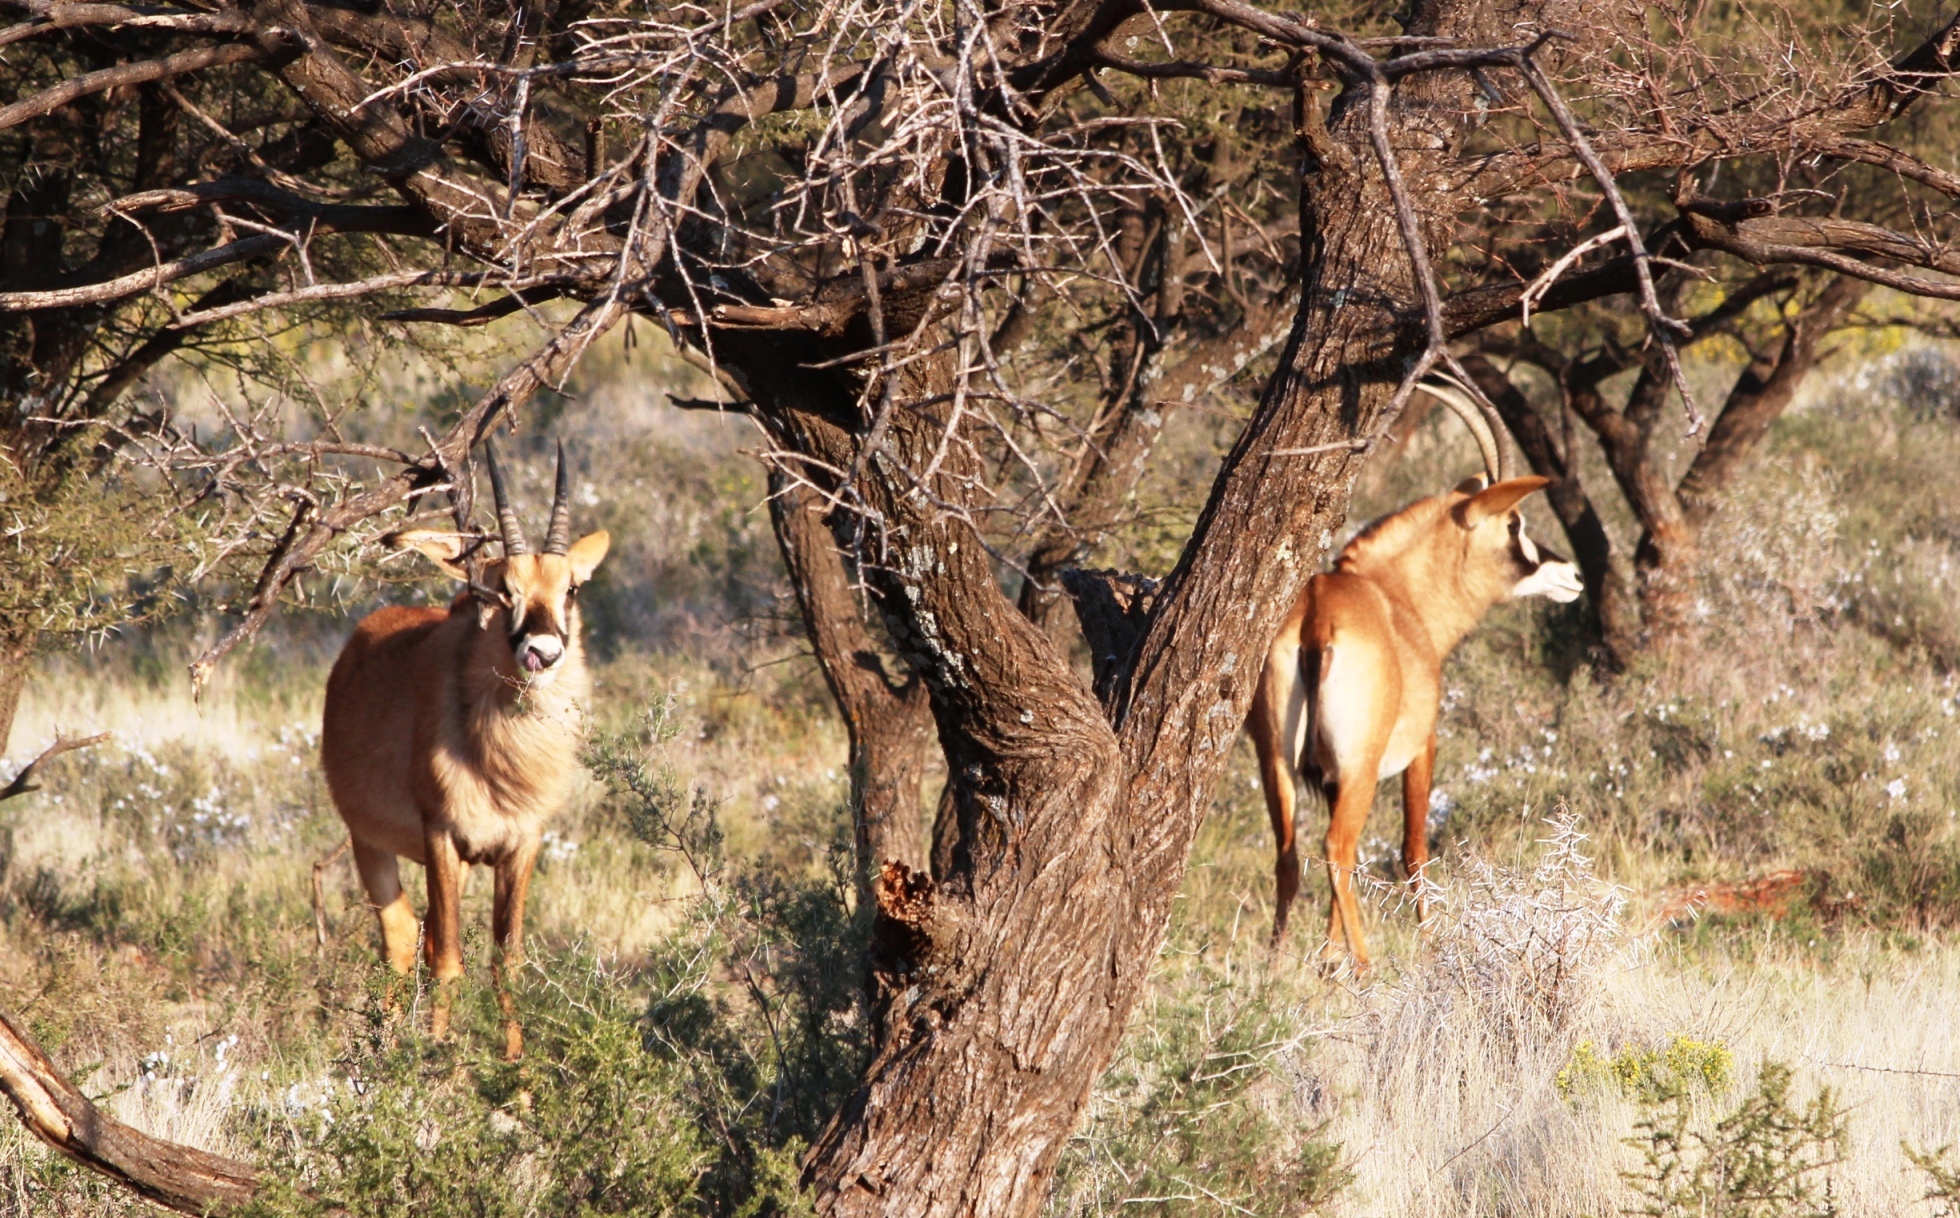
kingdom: Animalia
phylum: Chordata
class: Mammalia
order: Artiodactyla
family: Bovidae
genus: Hippotragus
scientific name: Hippotragus equinus
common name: Roan antelope
